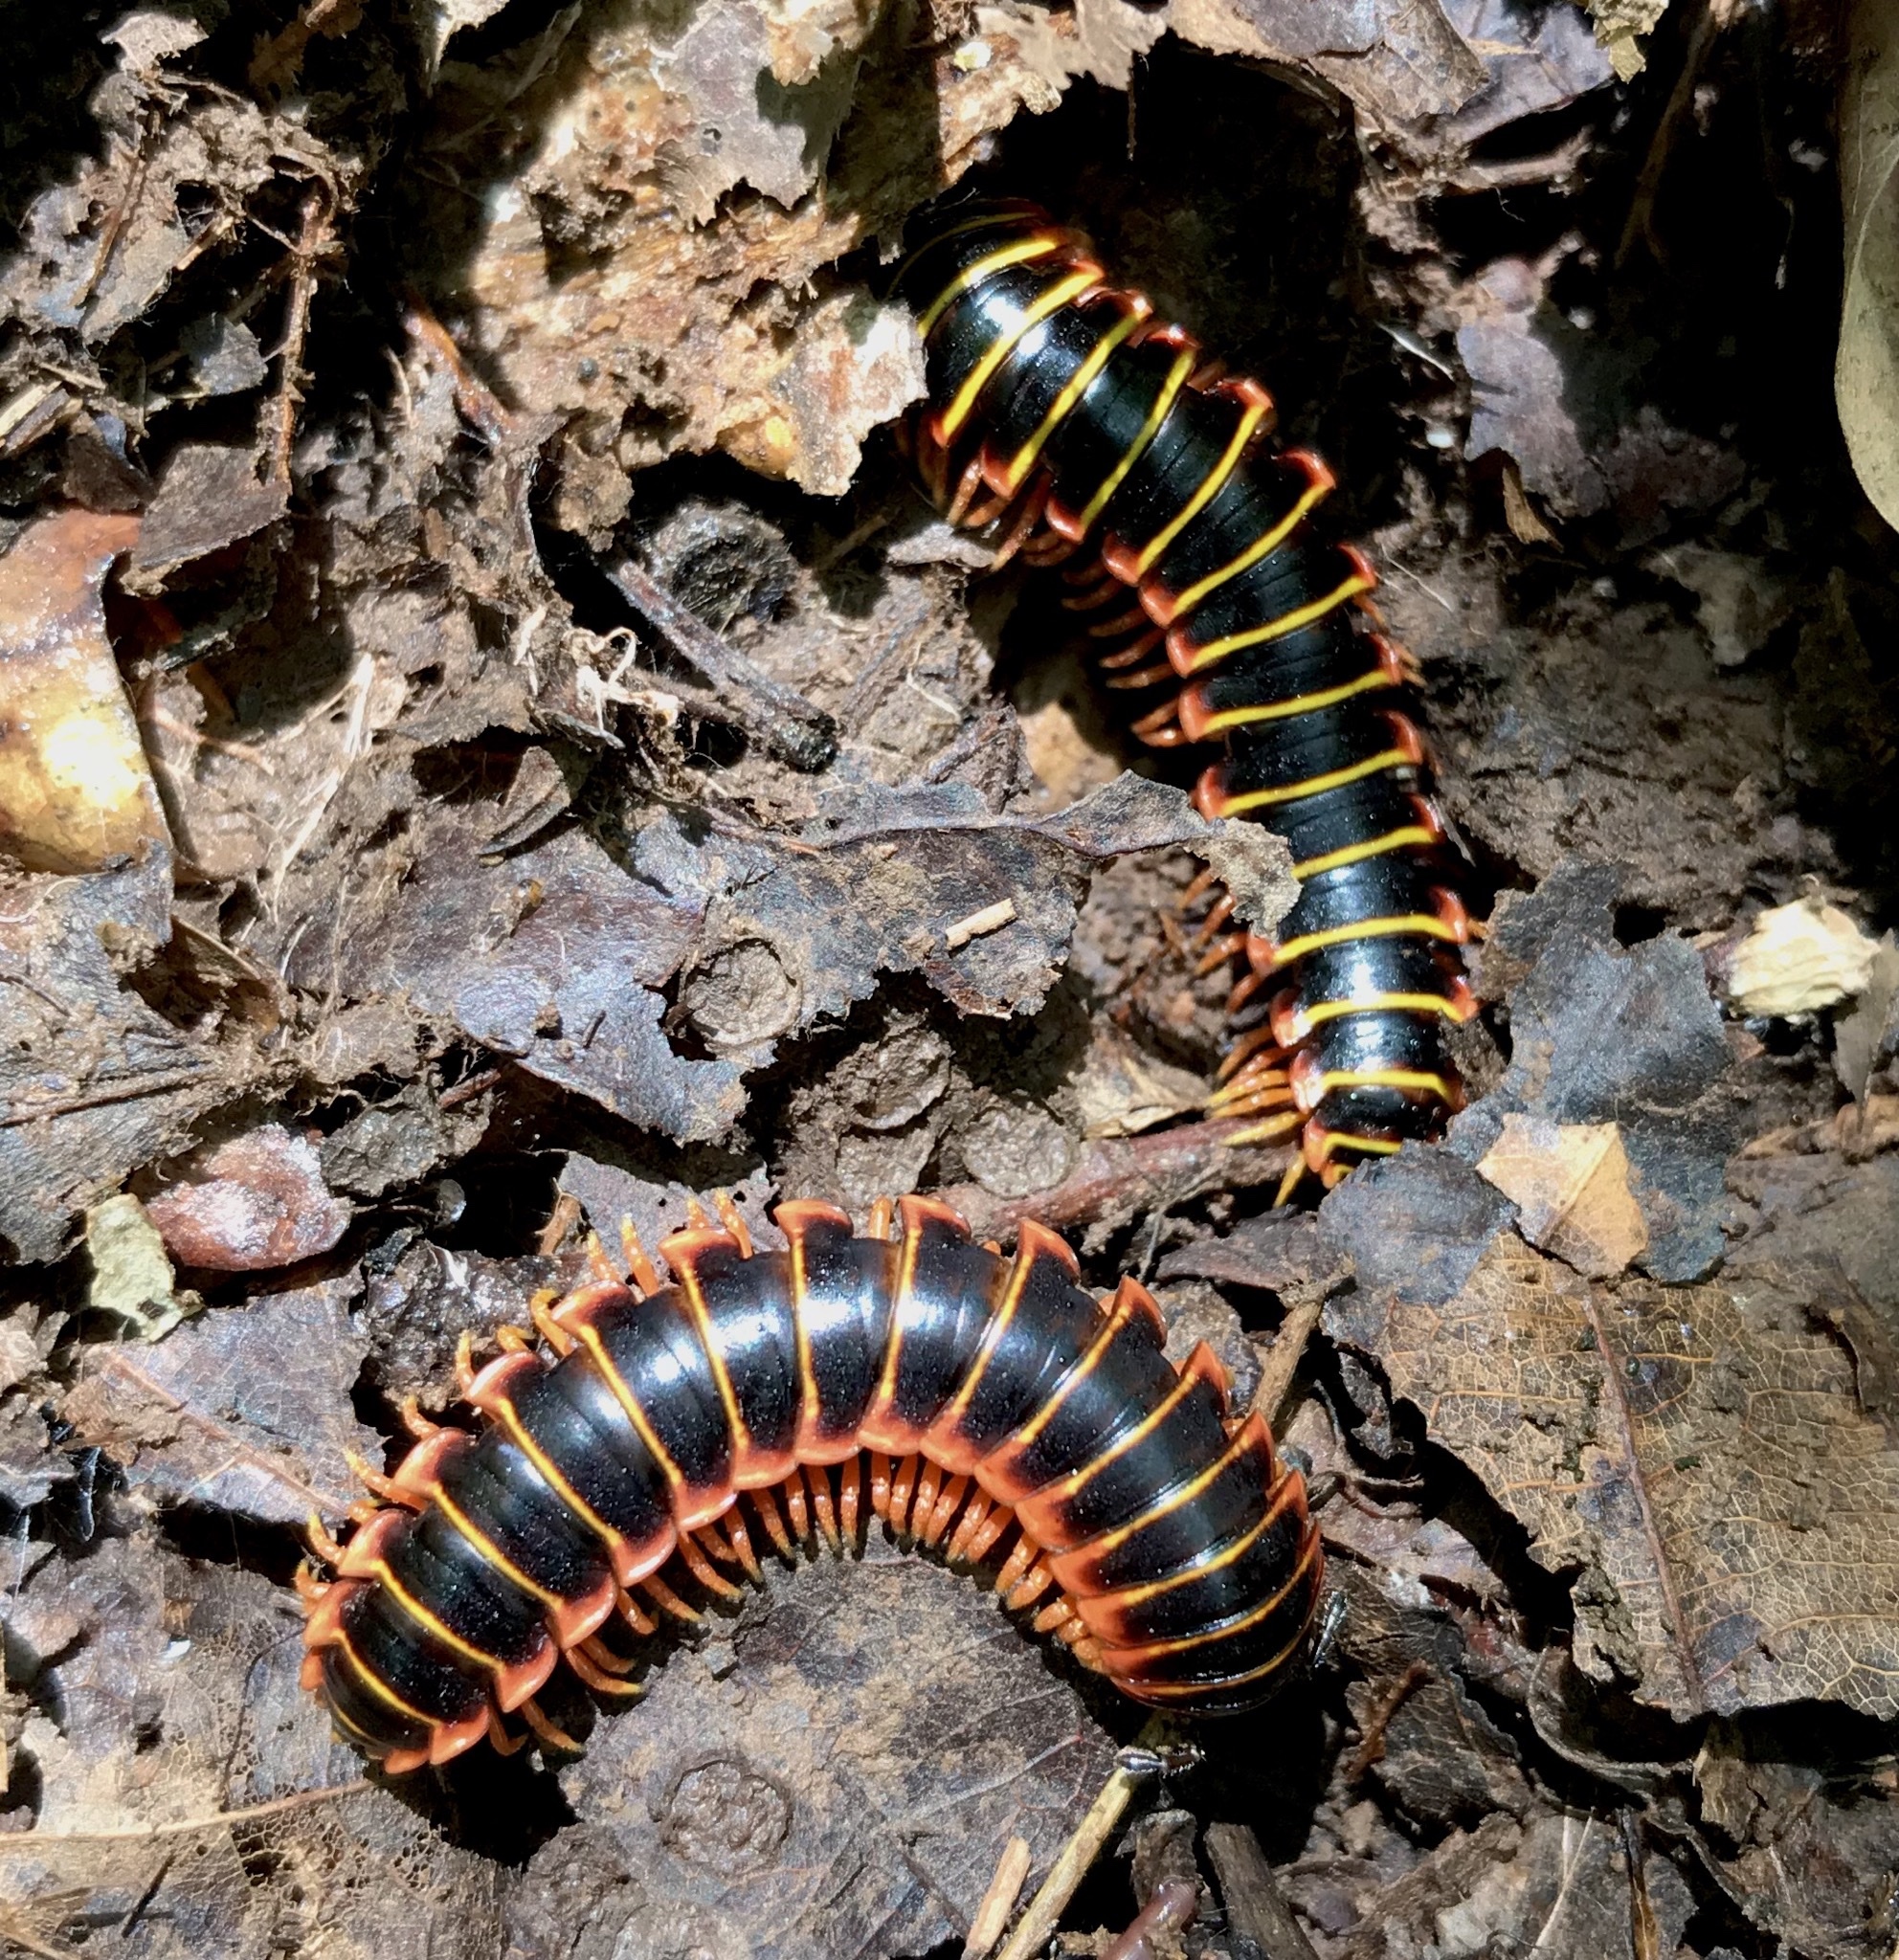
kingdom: Animalia
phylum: Arthropoda
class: Diplopoda
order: Polydesmida
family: Xystodesmidae
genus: Apheloria
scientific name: Apheloria virginiensis
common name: Black-and-gold flat millipede
